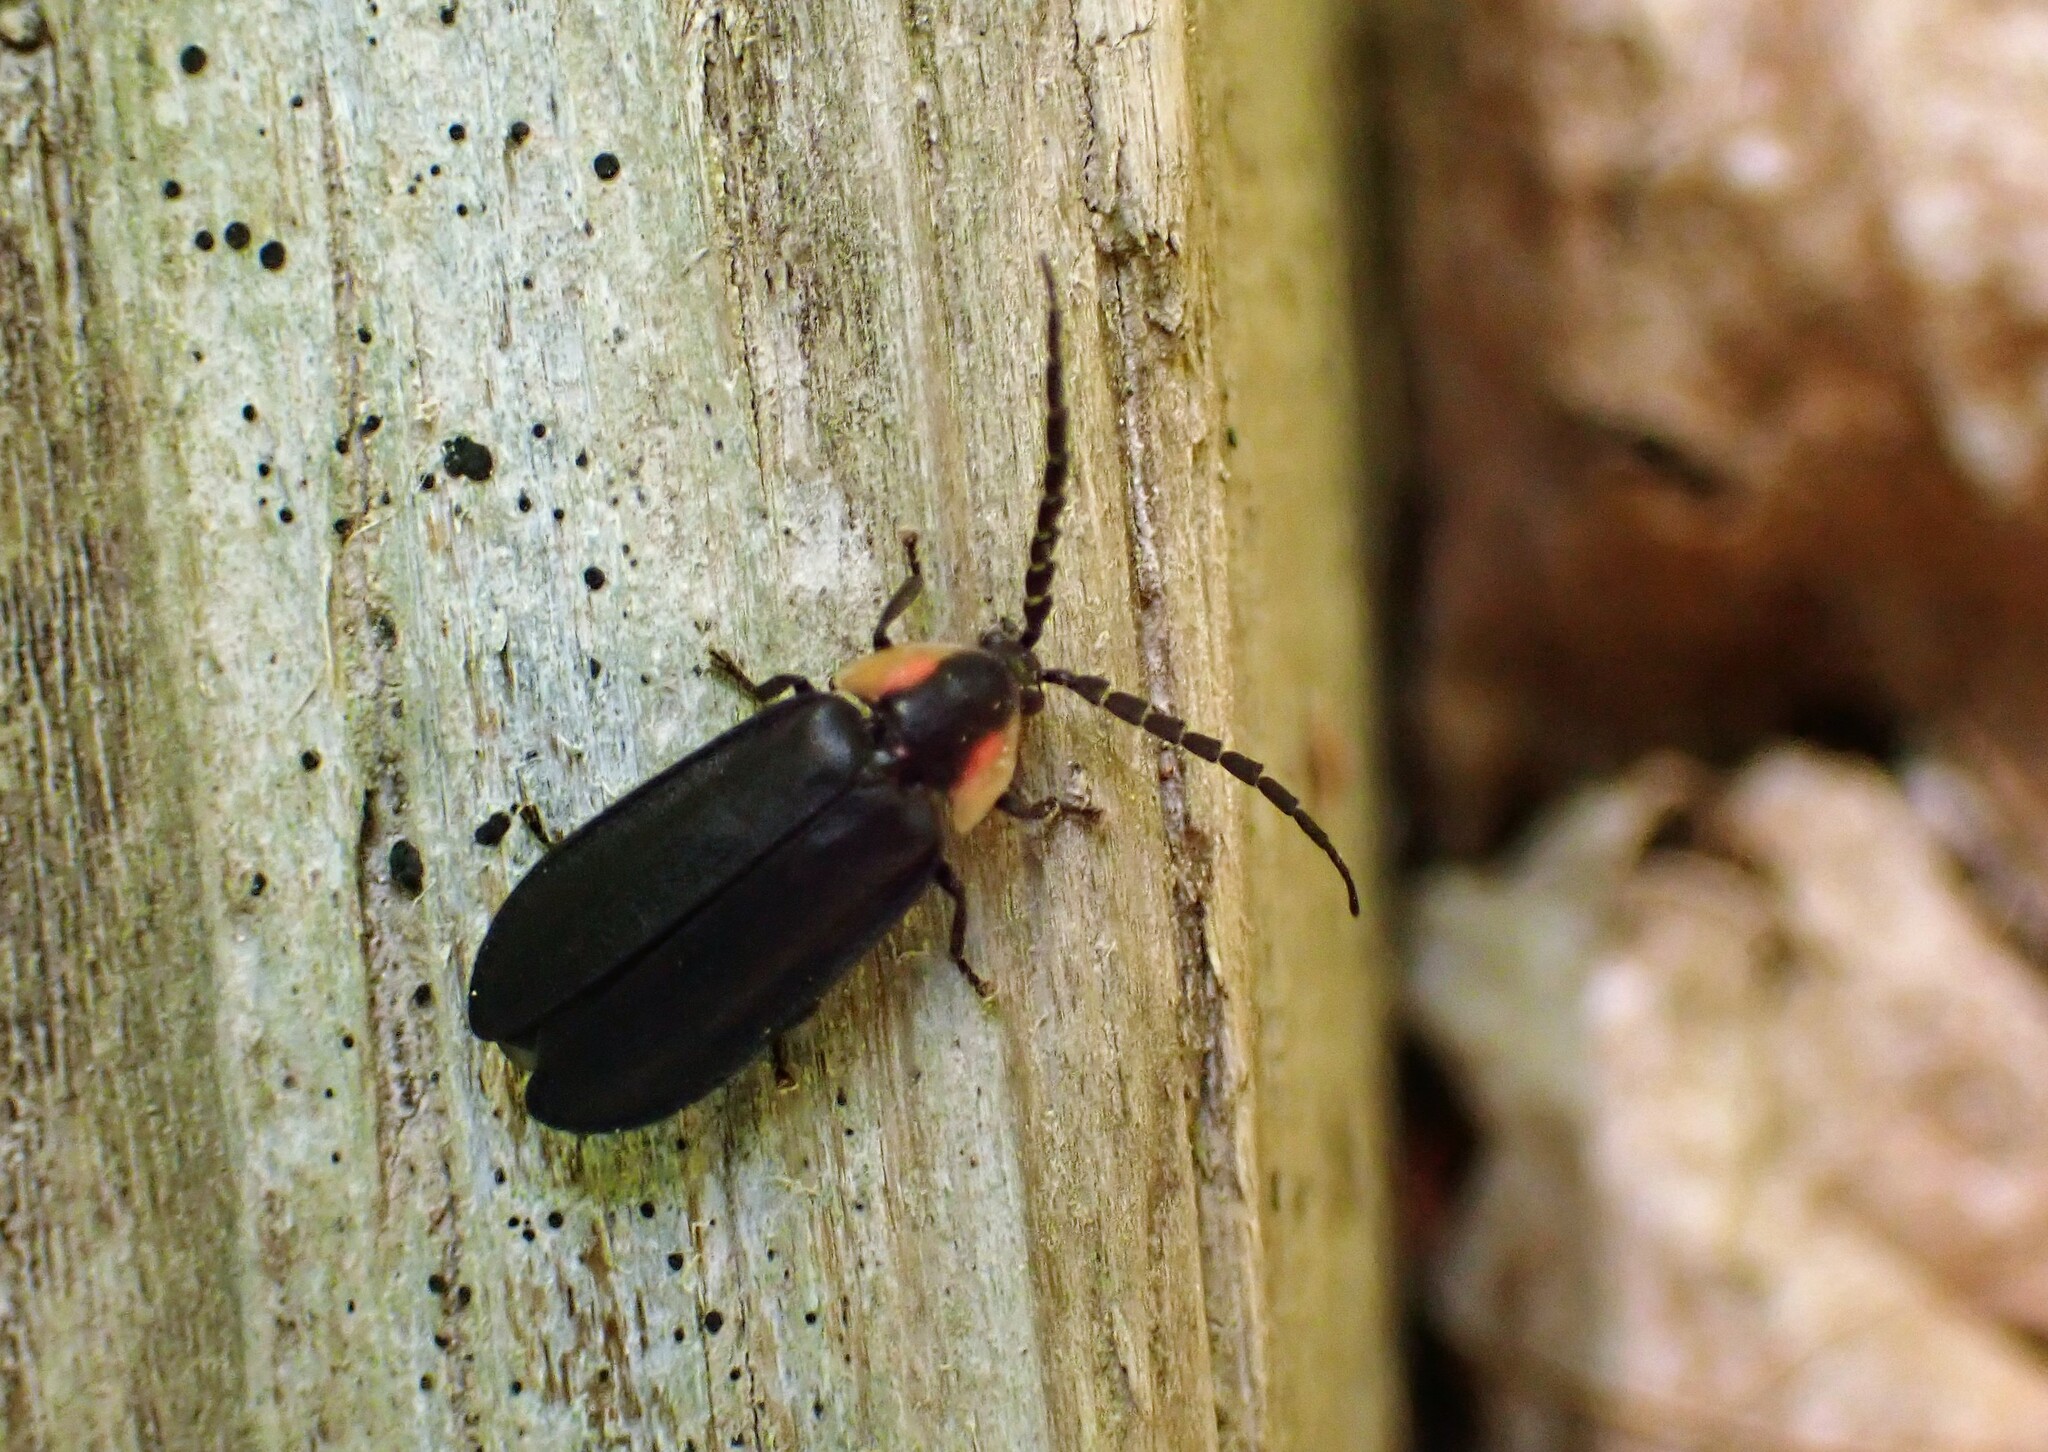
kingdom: Animalia
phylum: Arthropoda
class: Insecta
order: Coleoptera
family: Lampyridae
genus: Lucidota
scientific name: Lucidota atra
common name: Black firefly
